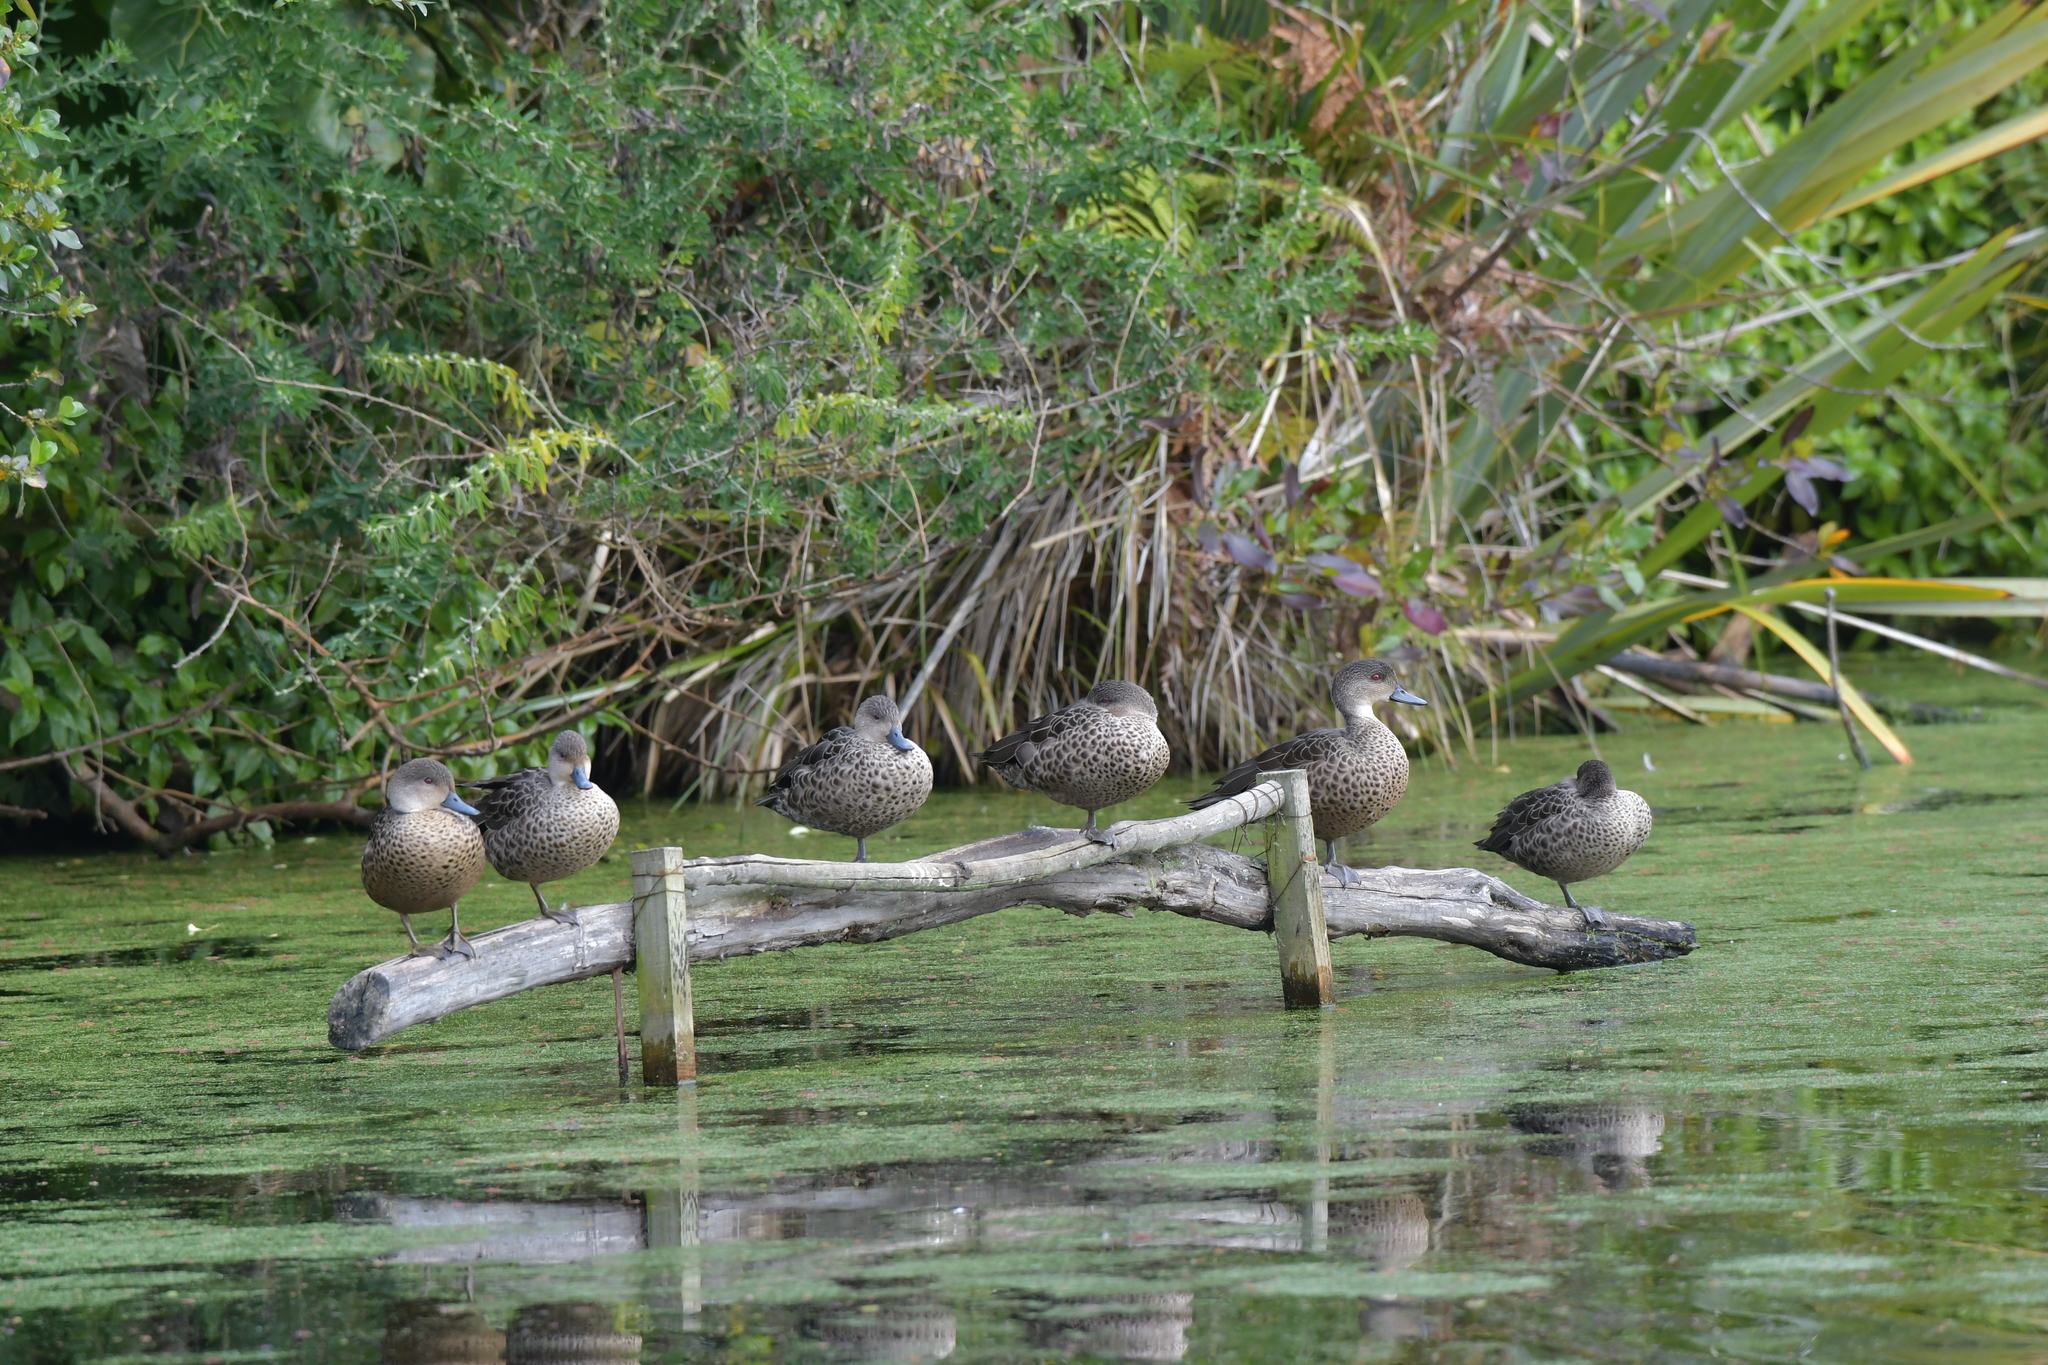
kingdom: Animalia
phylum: Chordata
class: Aves
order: Anseriformes
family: Anatidae
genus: Anas
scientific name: Anas gracilis
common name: Grey teal
